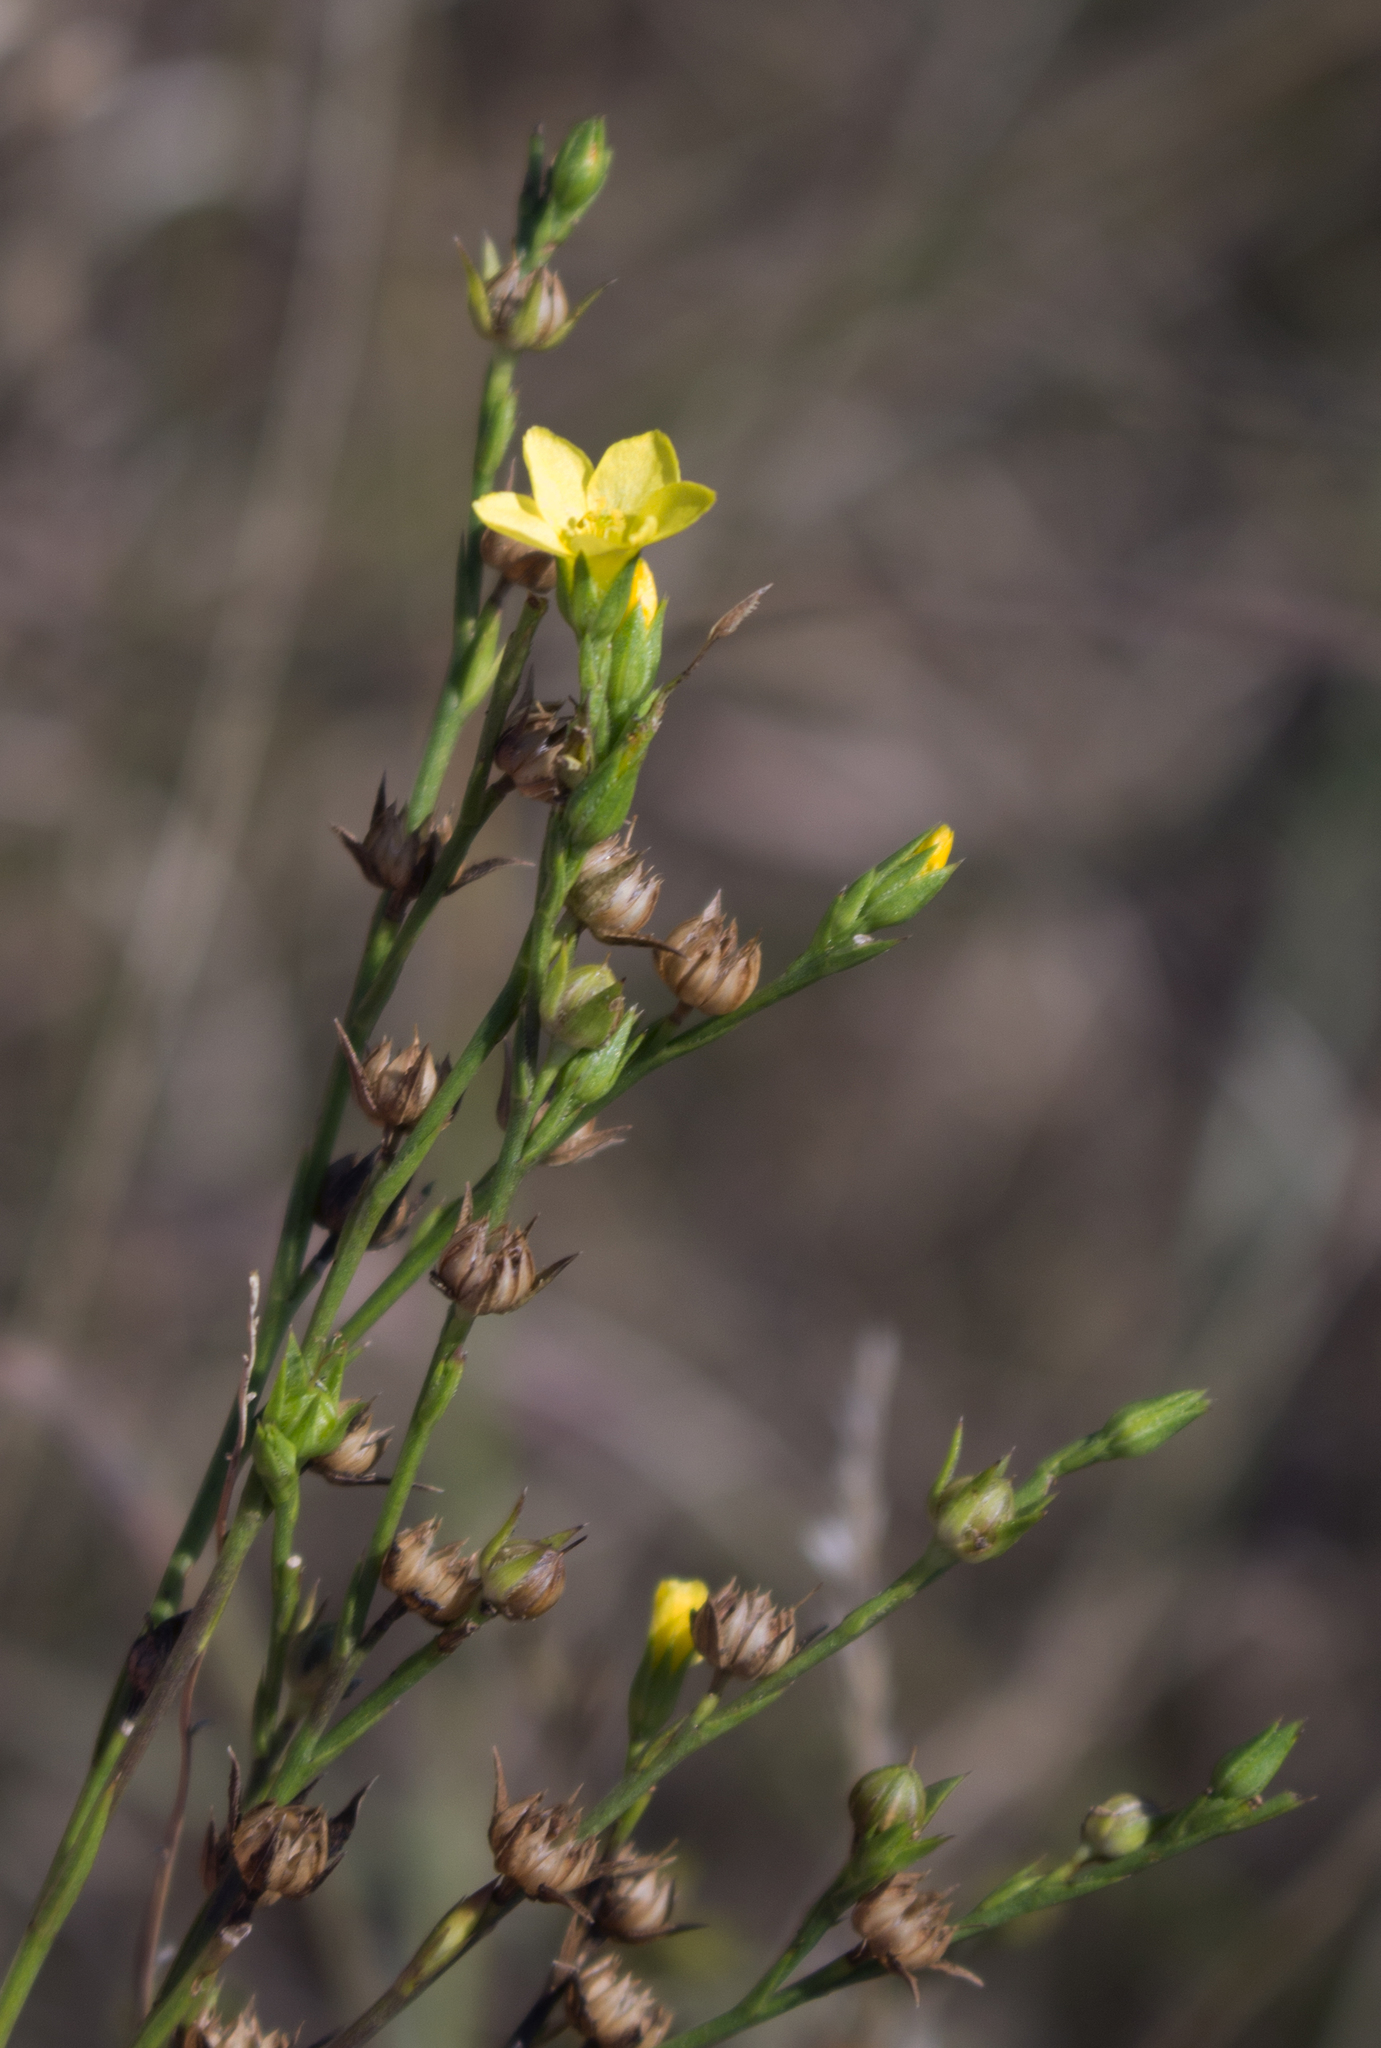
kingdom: Plantae
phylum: Tracheophyta
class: Magnoliopsida
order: Malpighiales
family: Linaceae
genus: Linum
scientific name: Linum sulcatum
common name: Grooved flax
